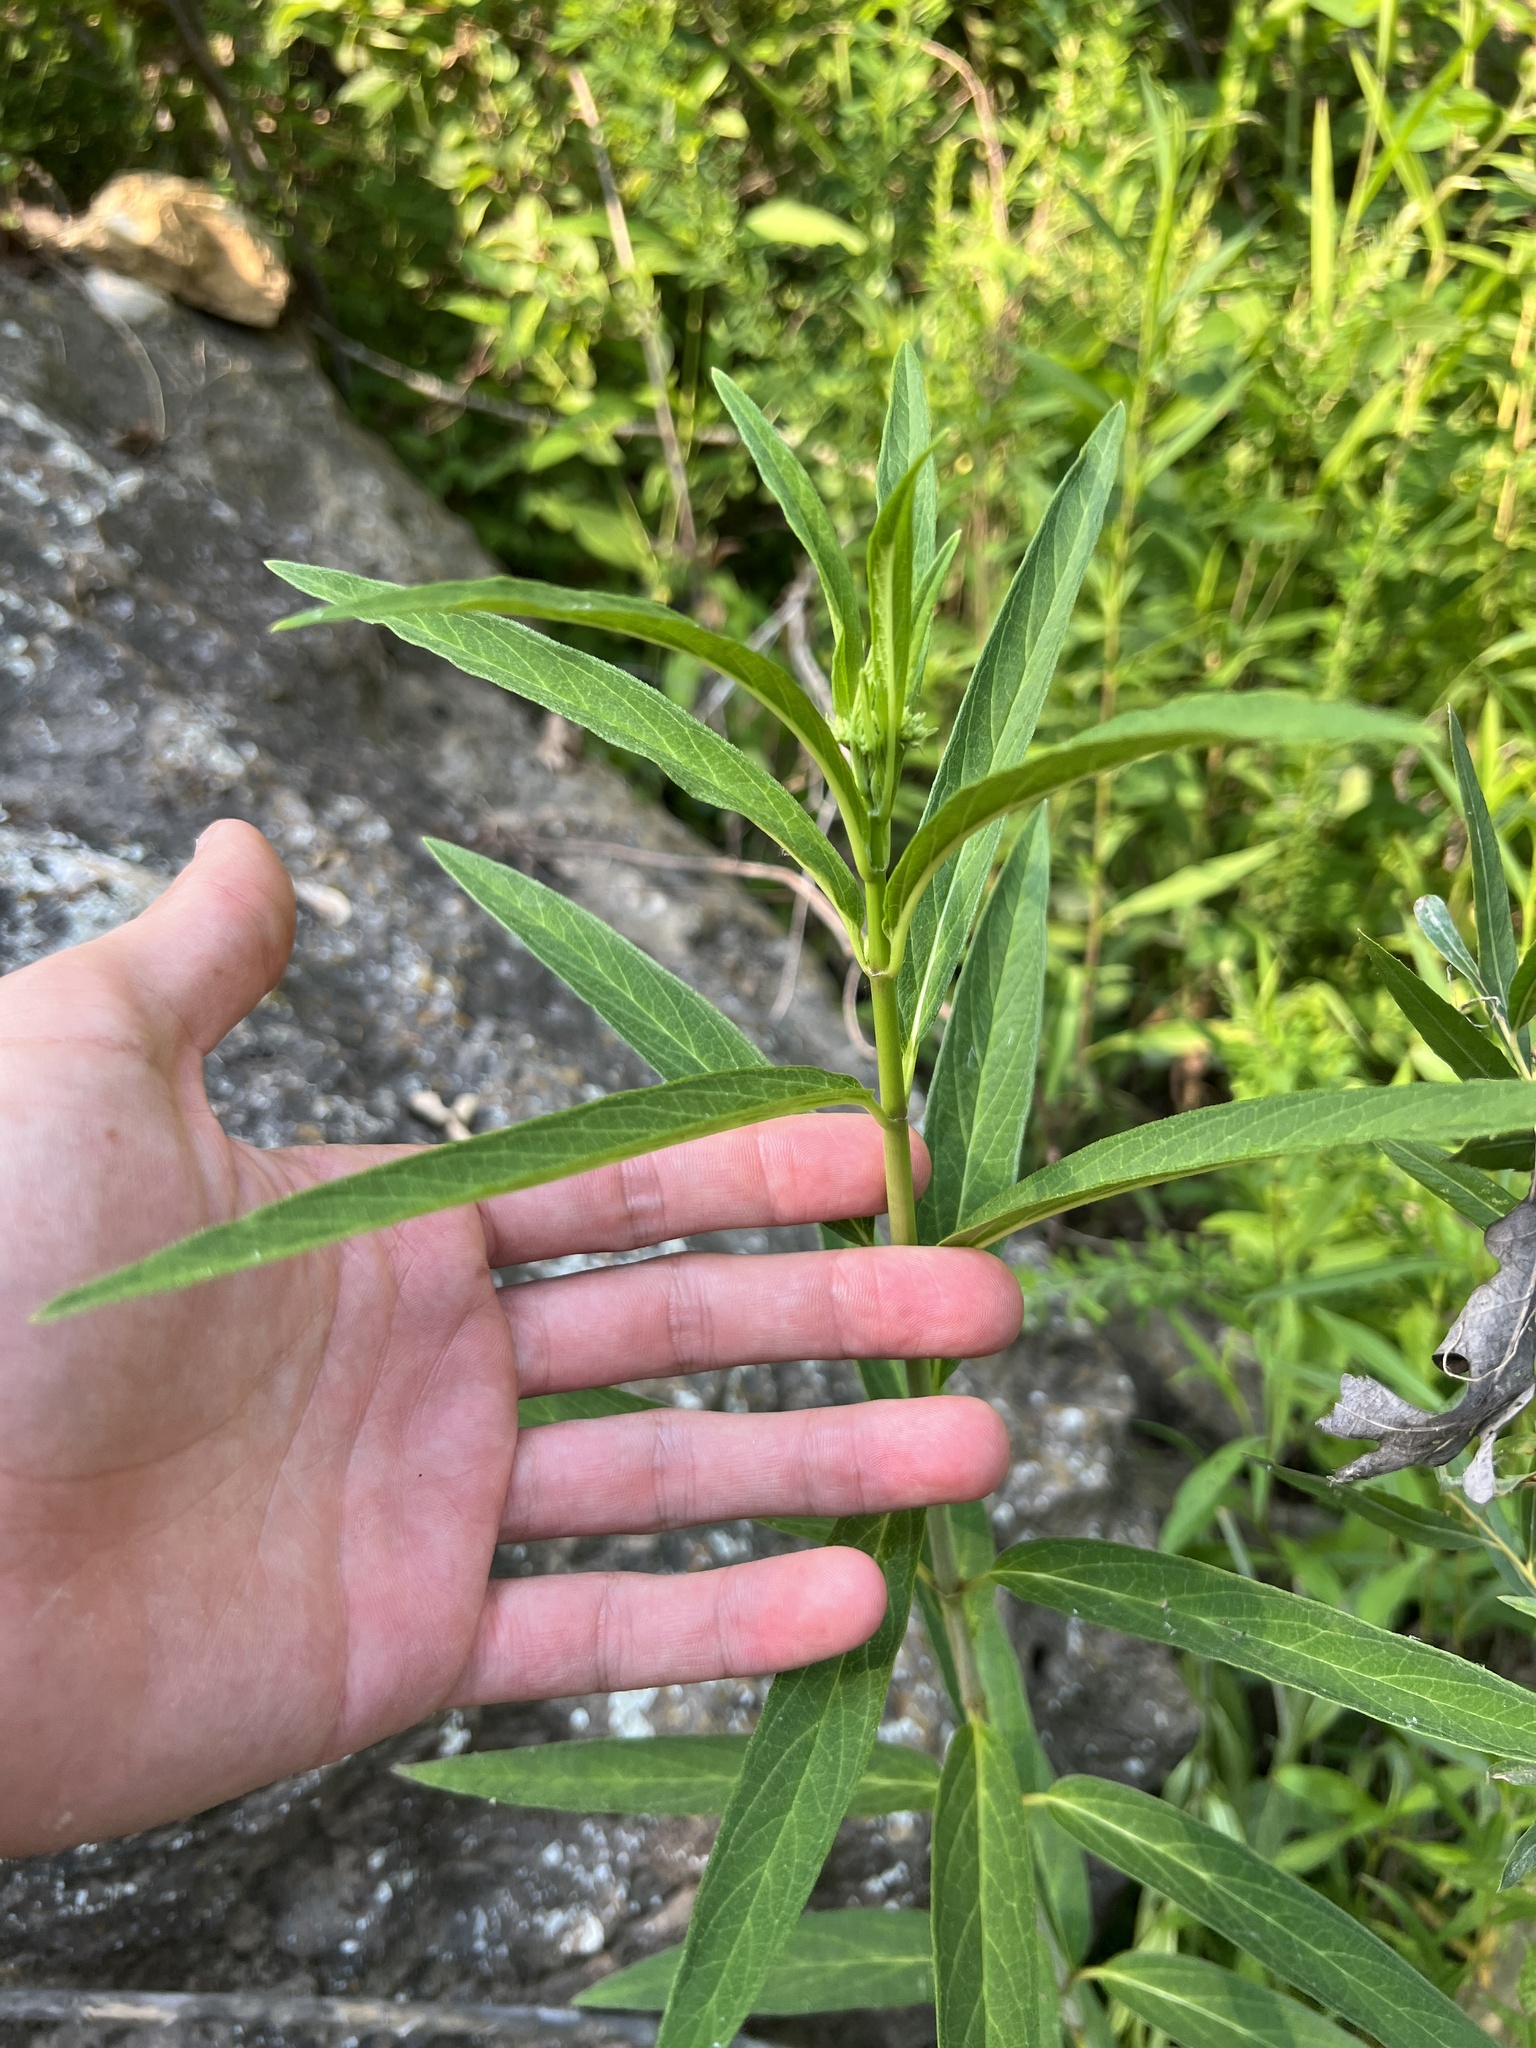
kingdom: Plantae
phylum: Tracheophyta
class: Magnoliopsida
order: Gentianales
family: Apocynaceae
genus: Asclepias
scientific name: Asclepias incarnata
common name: Swamp milkweed
